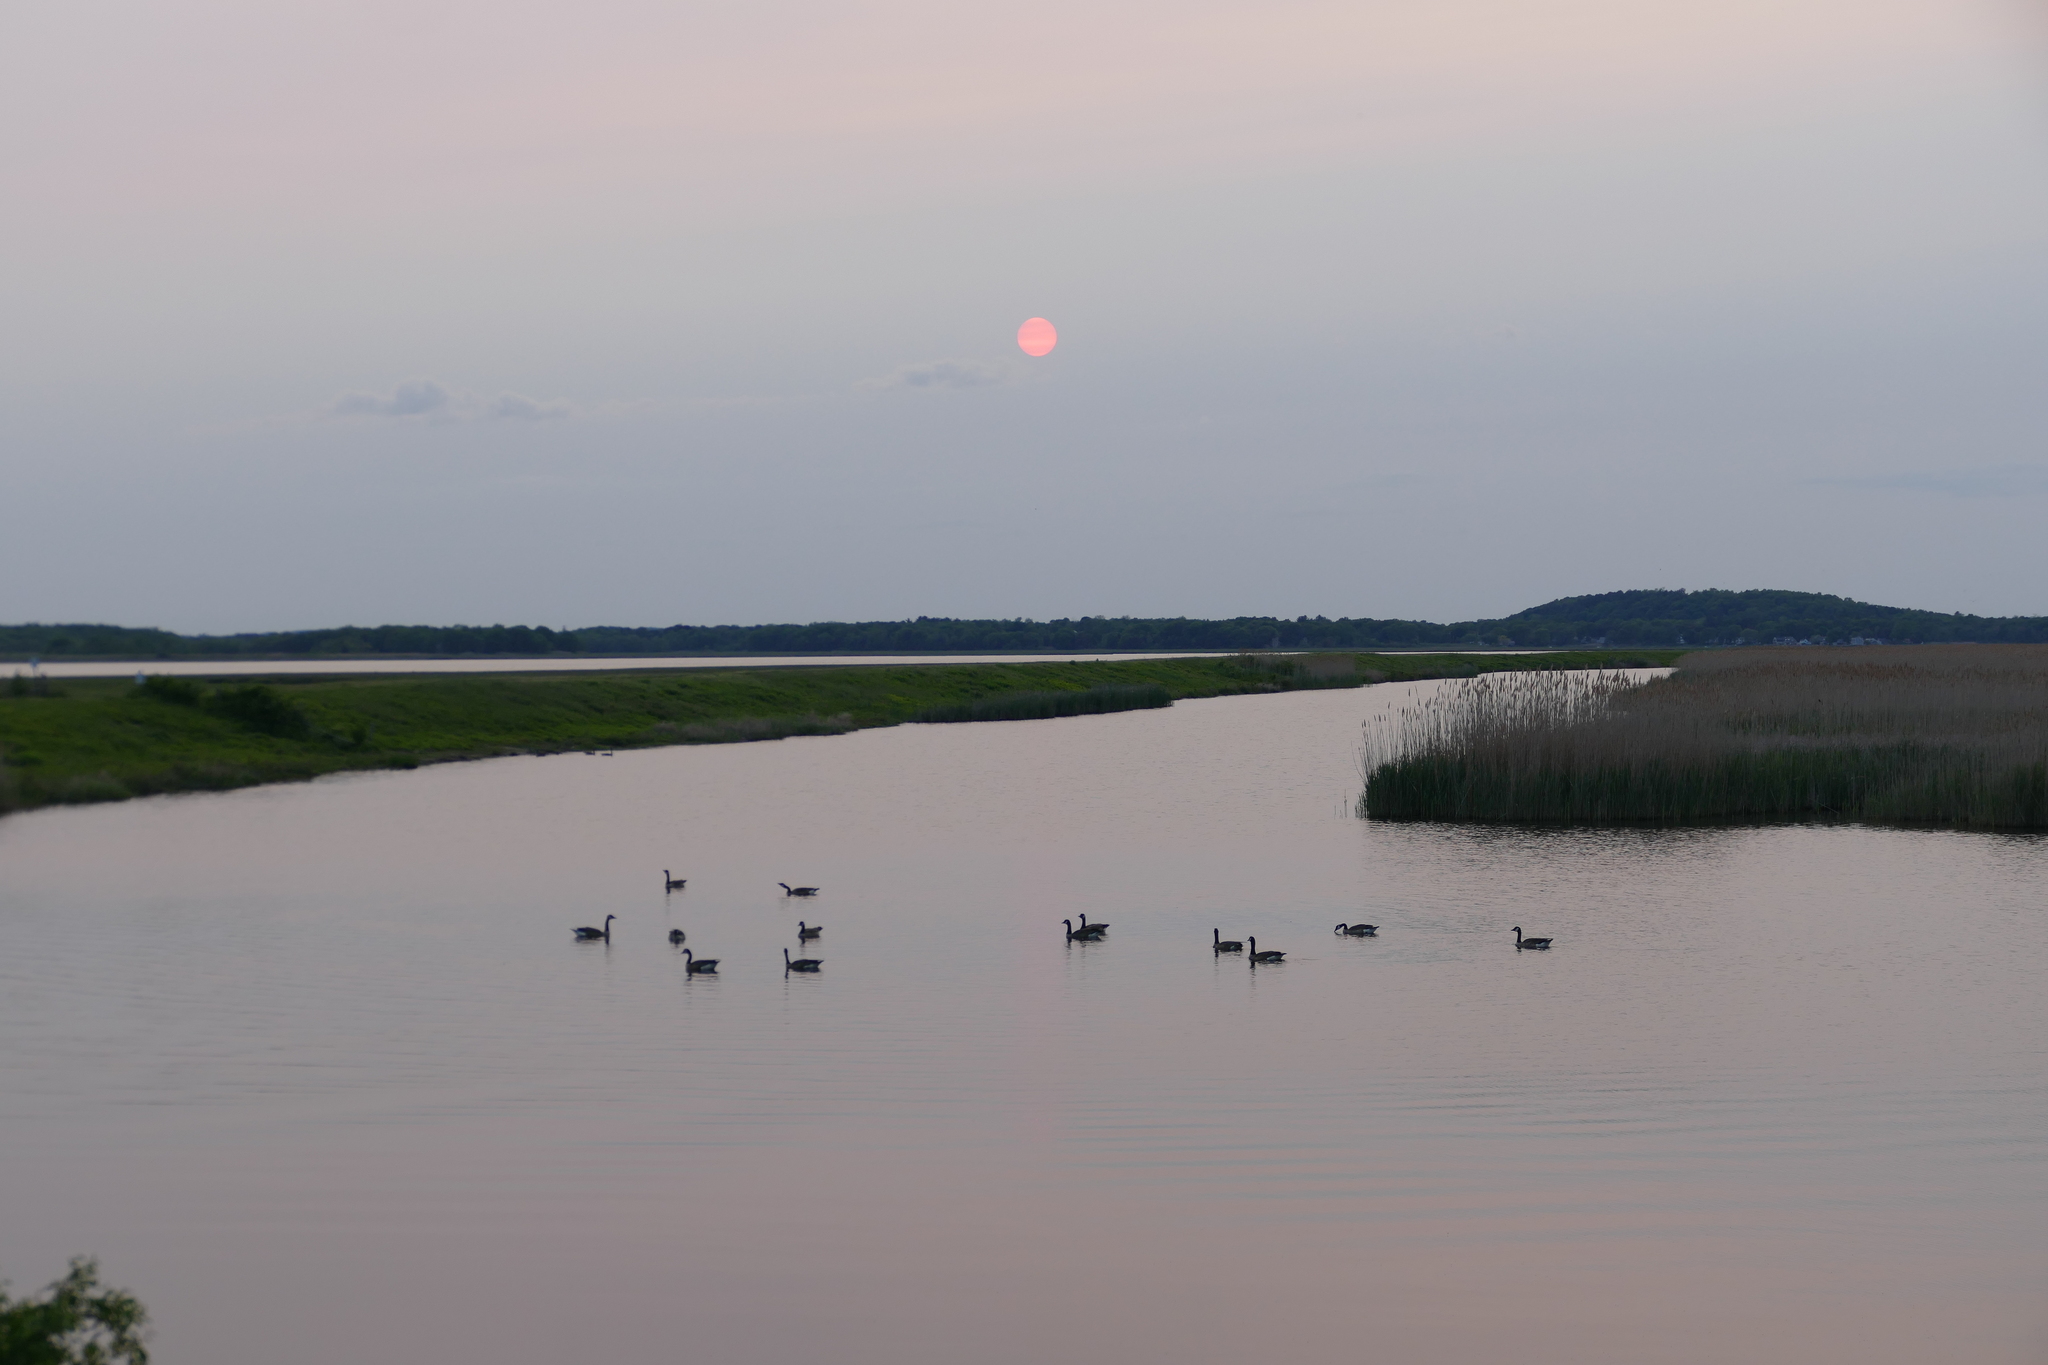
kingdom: Animalia
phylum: Chordata
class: Aves
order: Anseriformes
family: Anatidae
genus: Branta
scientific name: Branta canadensis
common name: Canada goose
